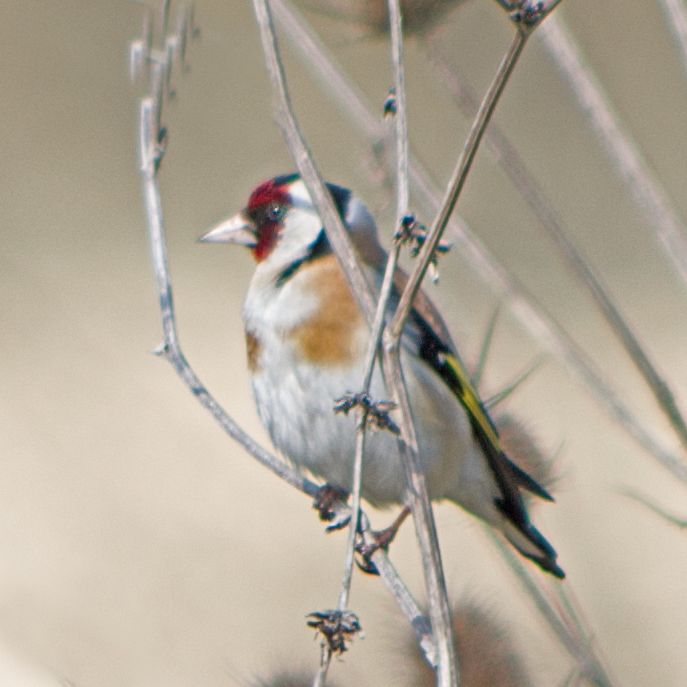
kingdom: Animalia
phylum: Chordata
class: Aves
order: Passeriformes
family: Fringillidae
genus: Carduelis
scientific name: Carduelis carduelis
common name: European goldfinch
